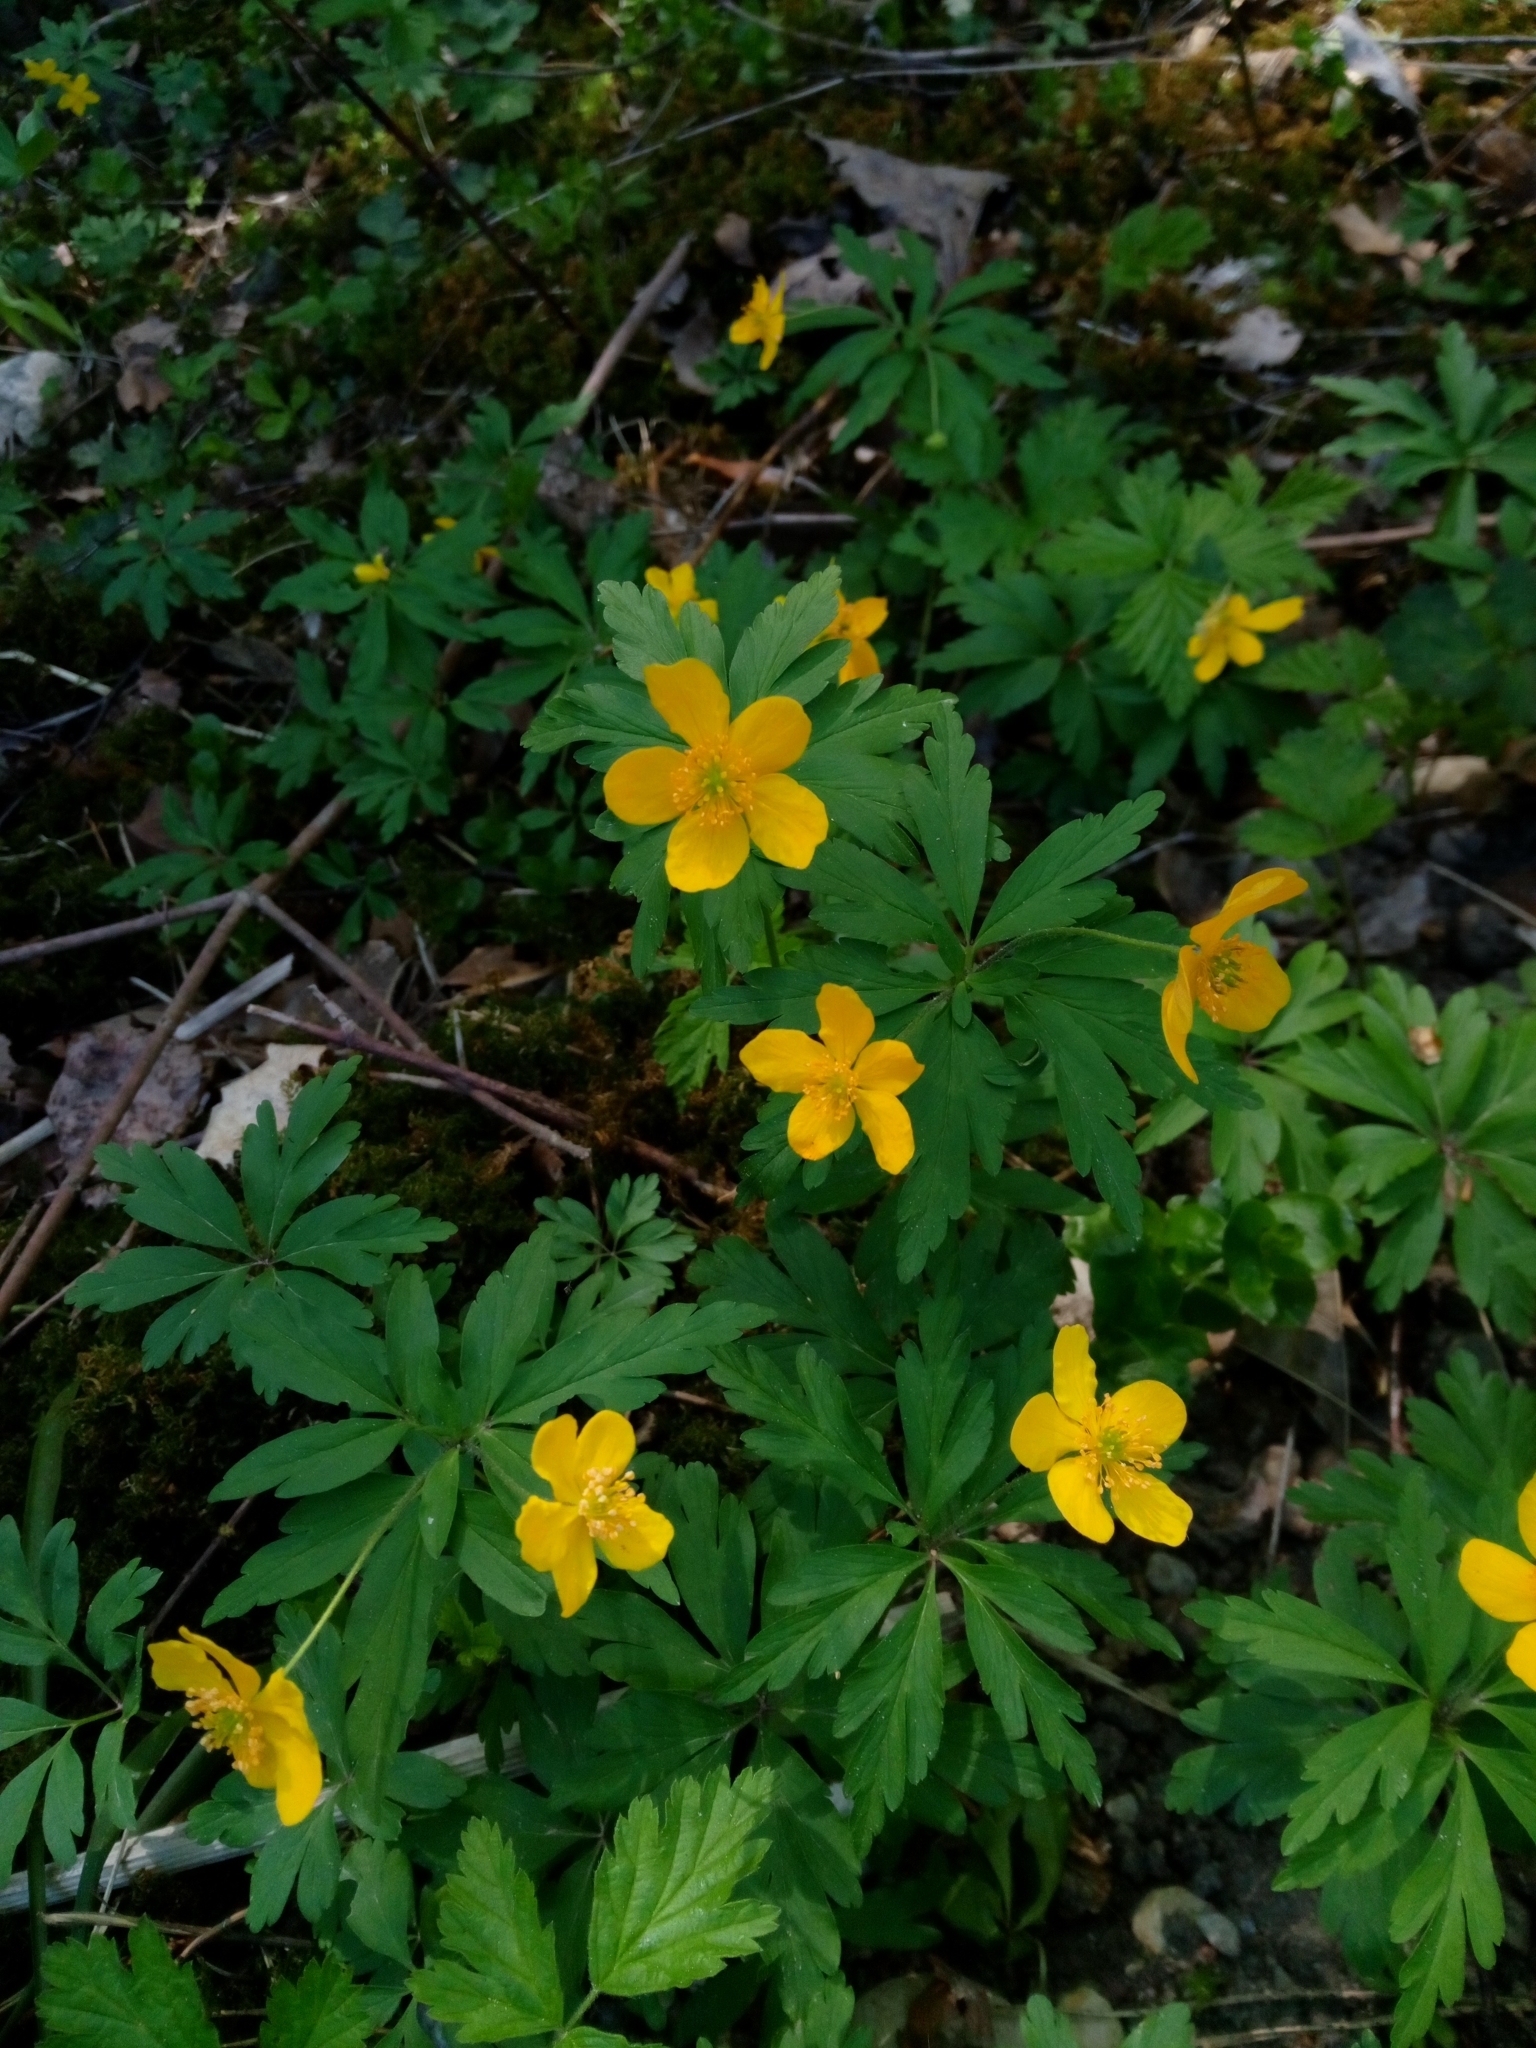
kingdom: Plantae
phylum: Tracheophyta
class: Magnoliopsida
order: Ranunculales
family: Ranunculaceae
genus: Anemone
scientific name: Anemone ranunculoides
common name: Yellow anemone
